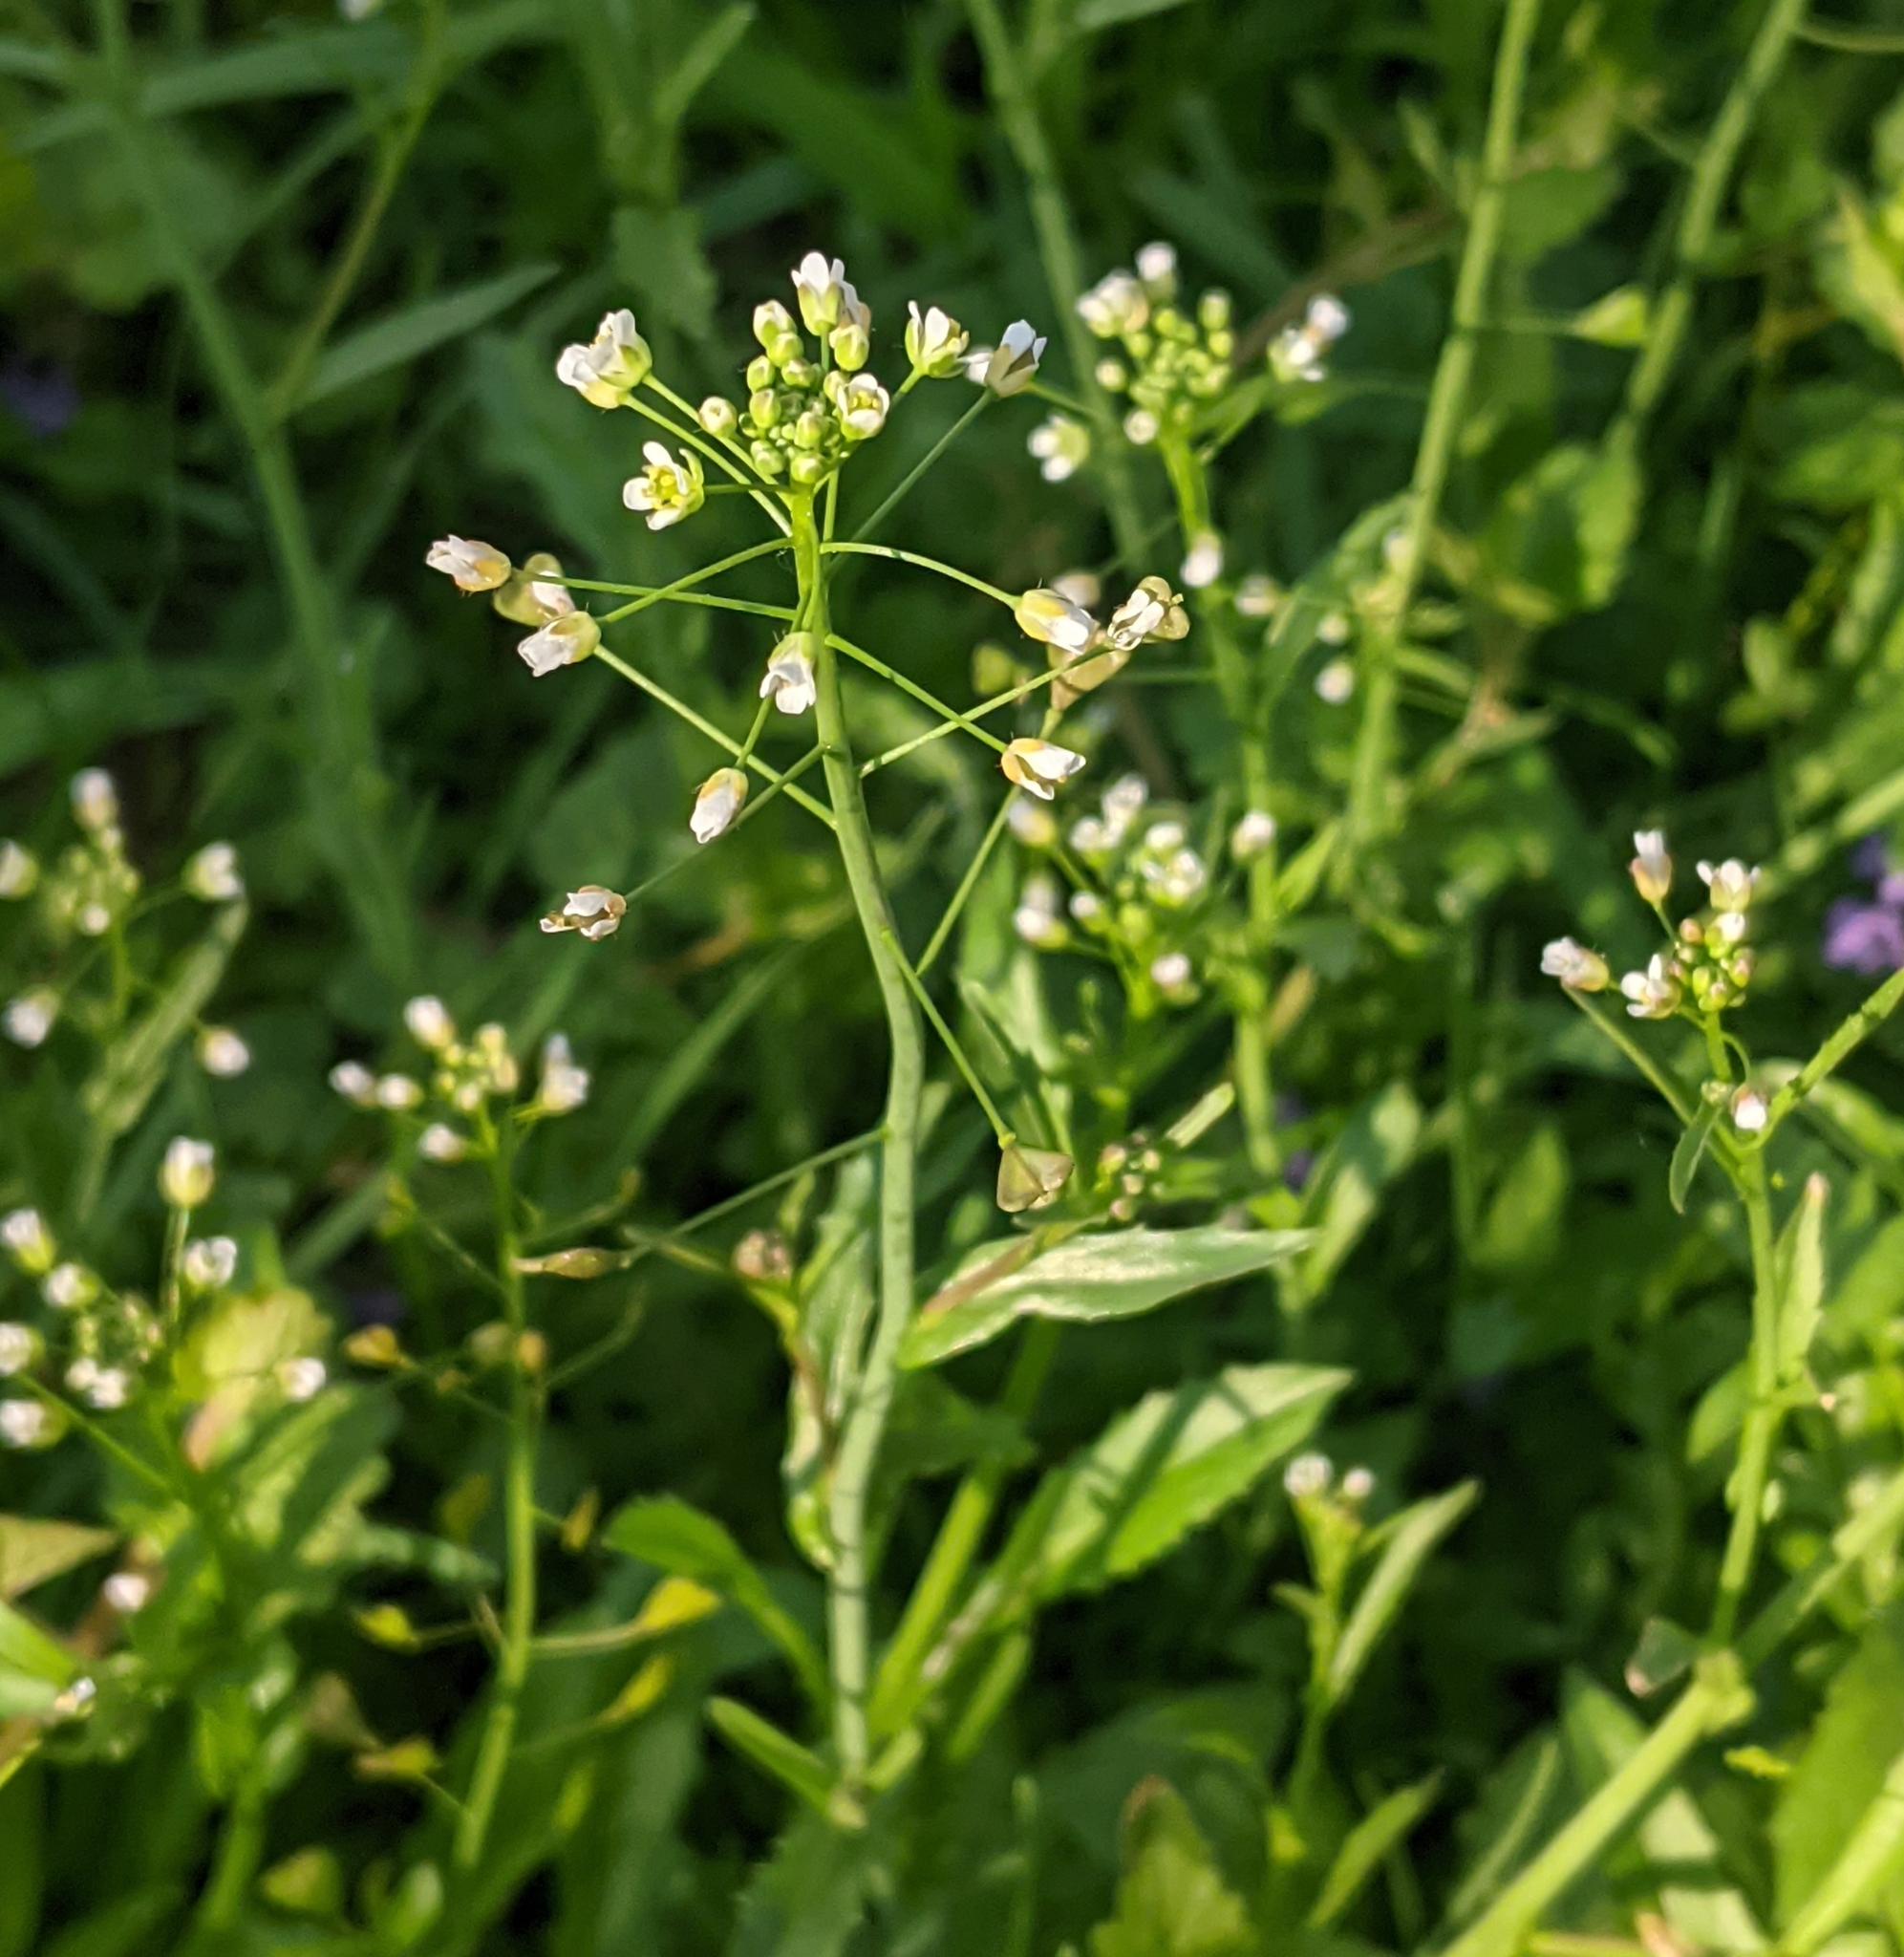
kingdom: Plantae
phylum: Tracheophyta
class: Magnoliopsida
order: Brassicales
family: Brassicaceae
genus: Capsella
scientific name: Capsella bursa-pastoris
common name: Shepherd's purse
